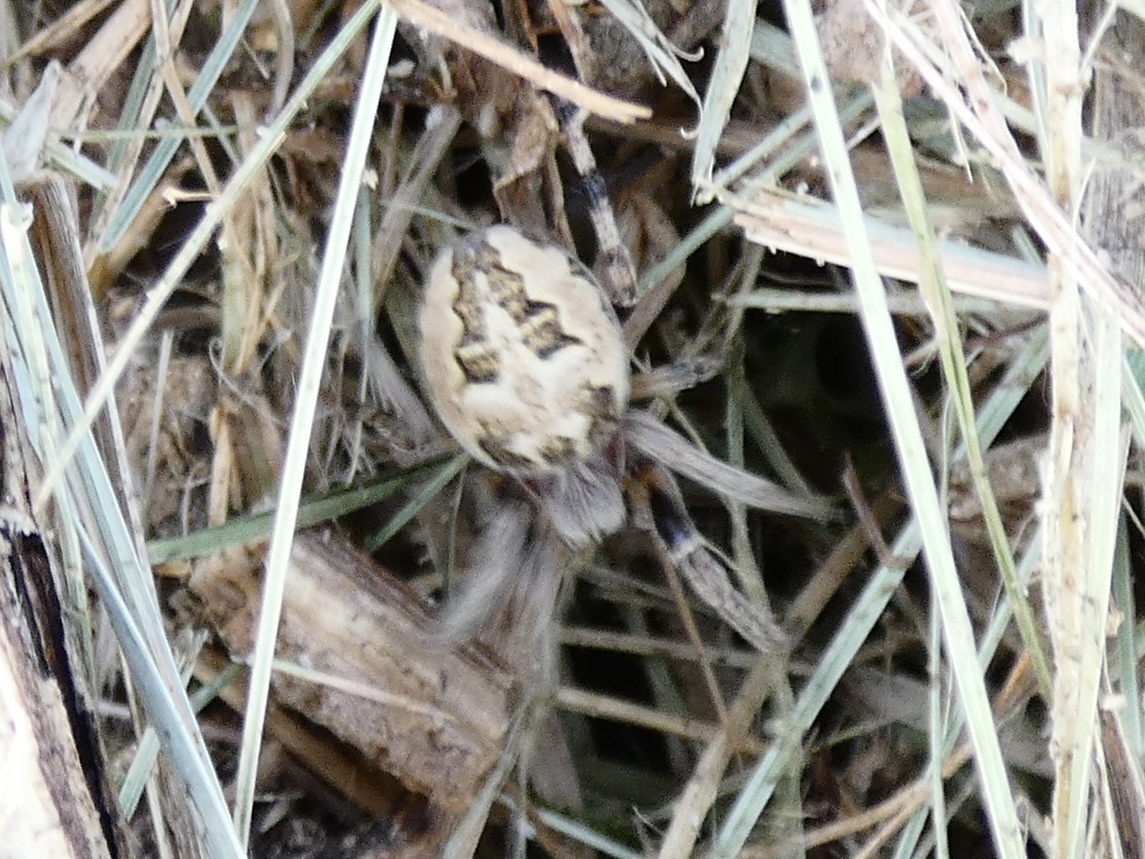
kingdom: Animalia
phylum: Arthropoda
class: Arachnida
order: Araneae
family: Araneidae
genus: Larinioides
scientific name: Larinioides cornutus
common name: Furrow orbweaver
